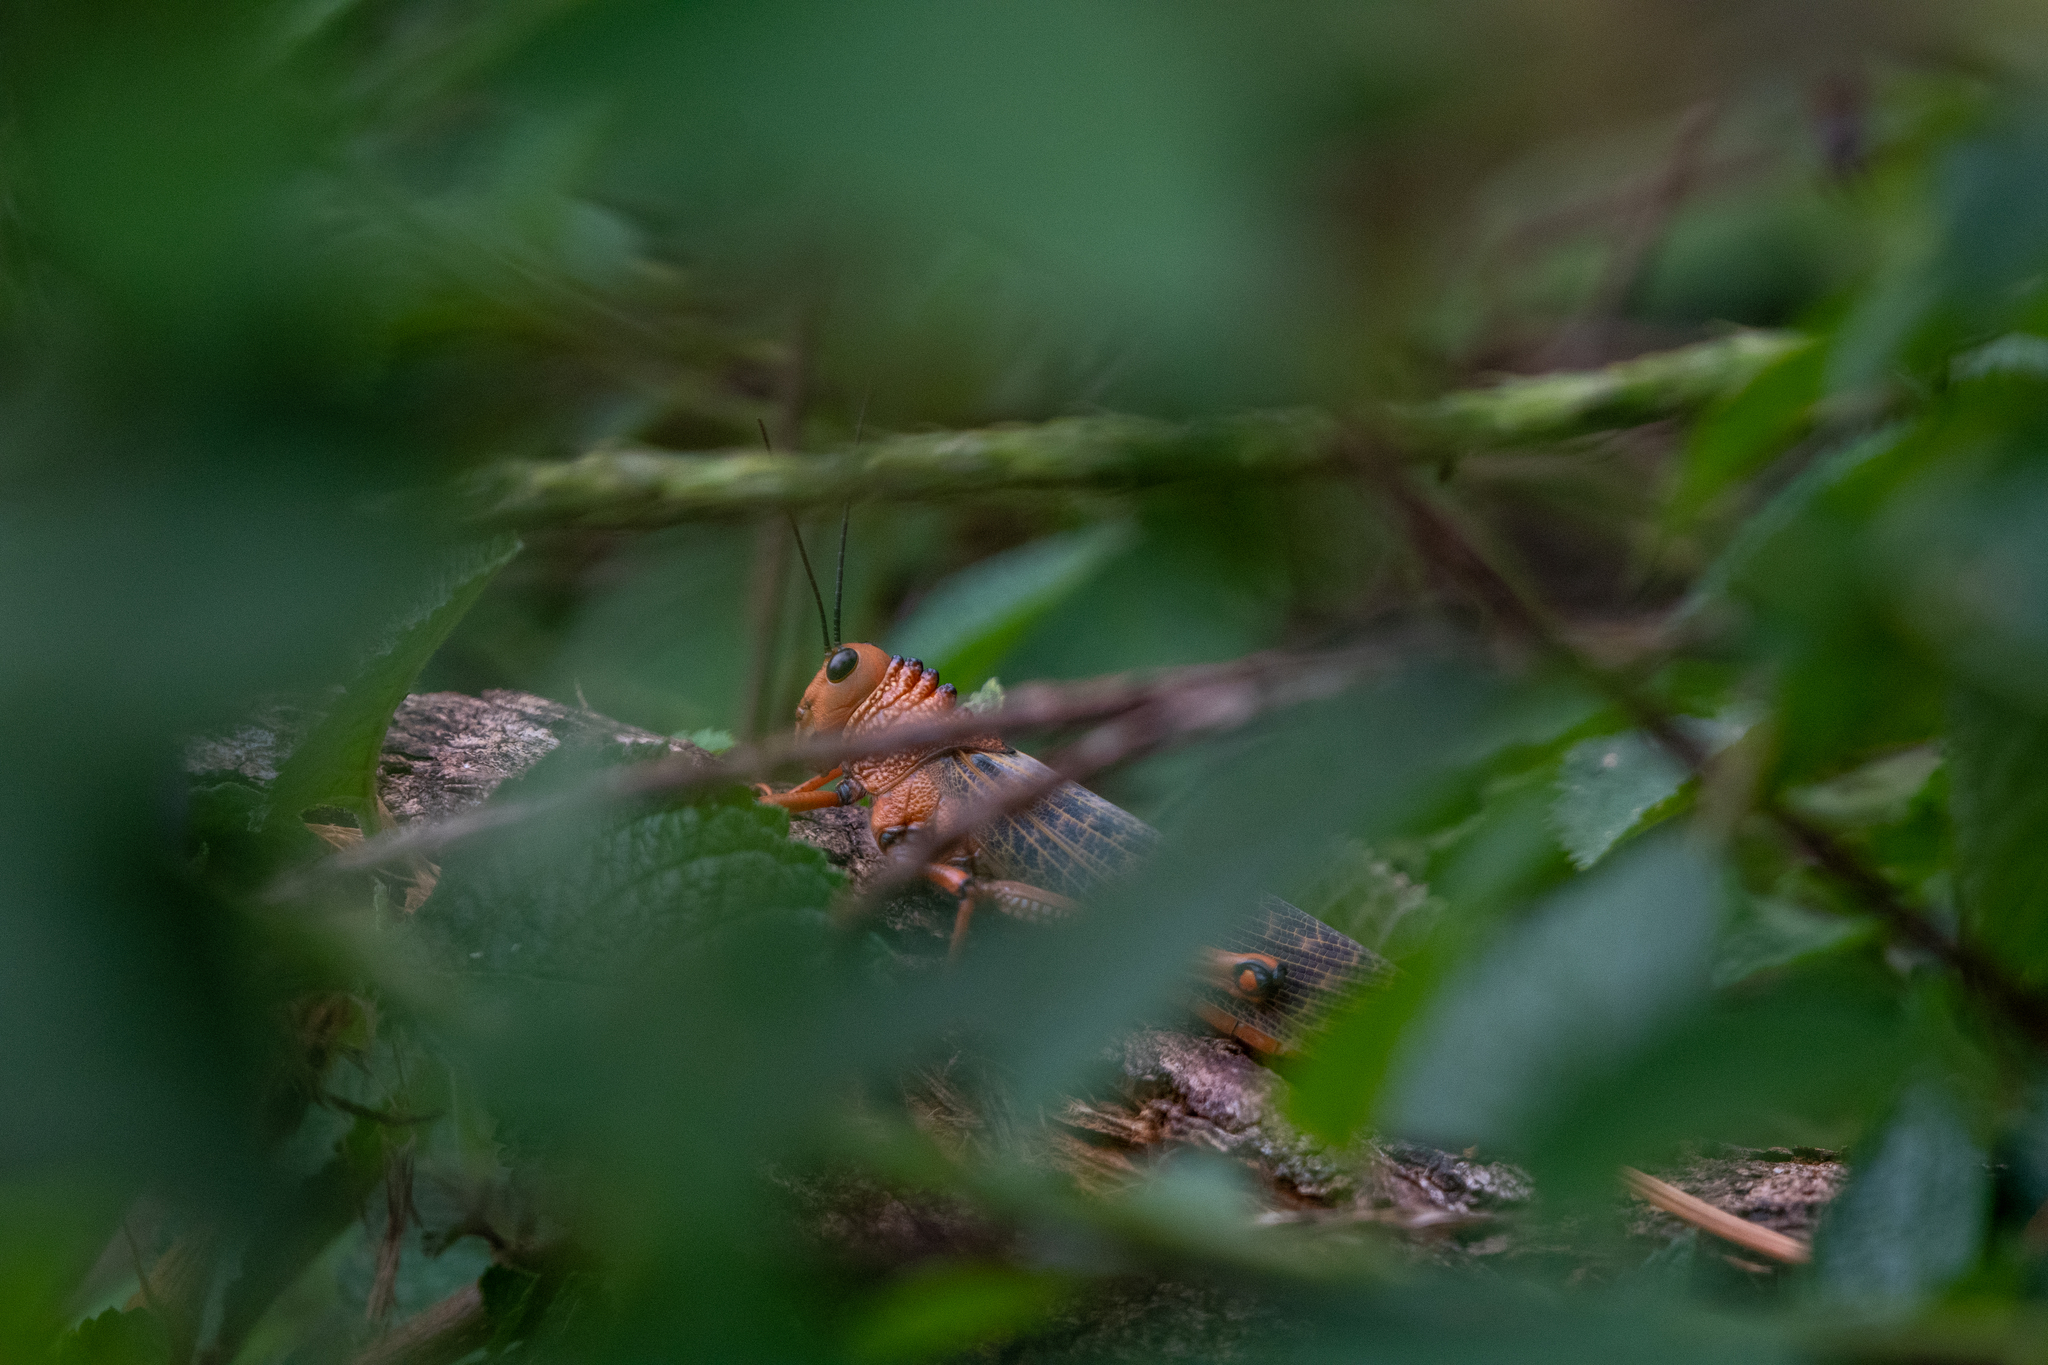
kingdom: Animalia
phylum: Arthropoda
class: Insecta
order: Orthoptera
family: Romaleidae
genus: Tropidacris
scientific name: Tropidacris cristata
